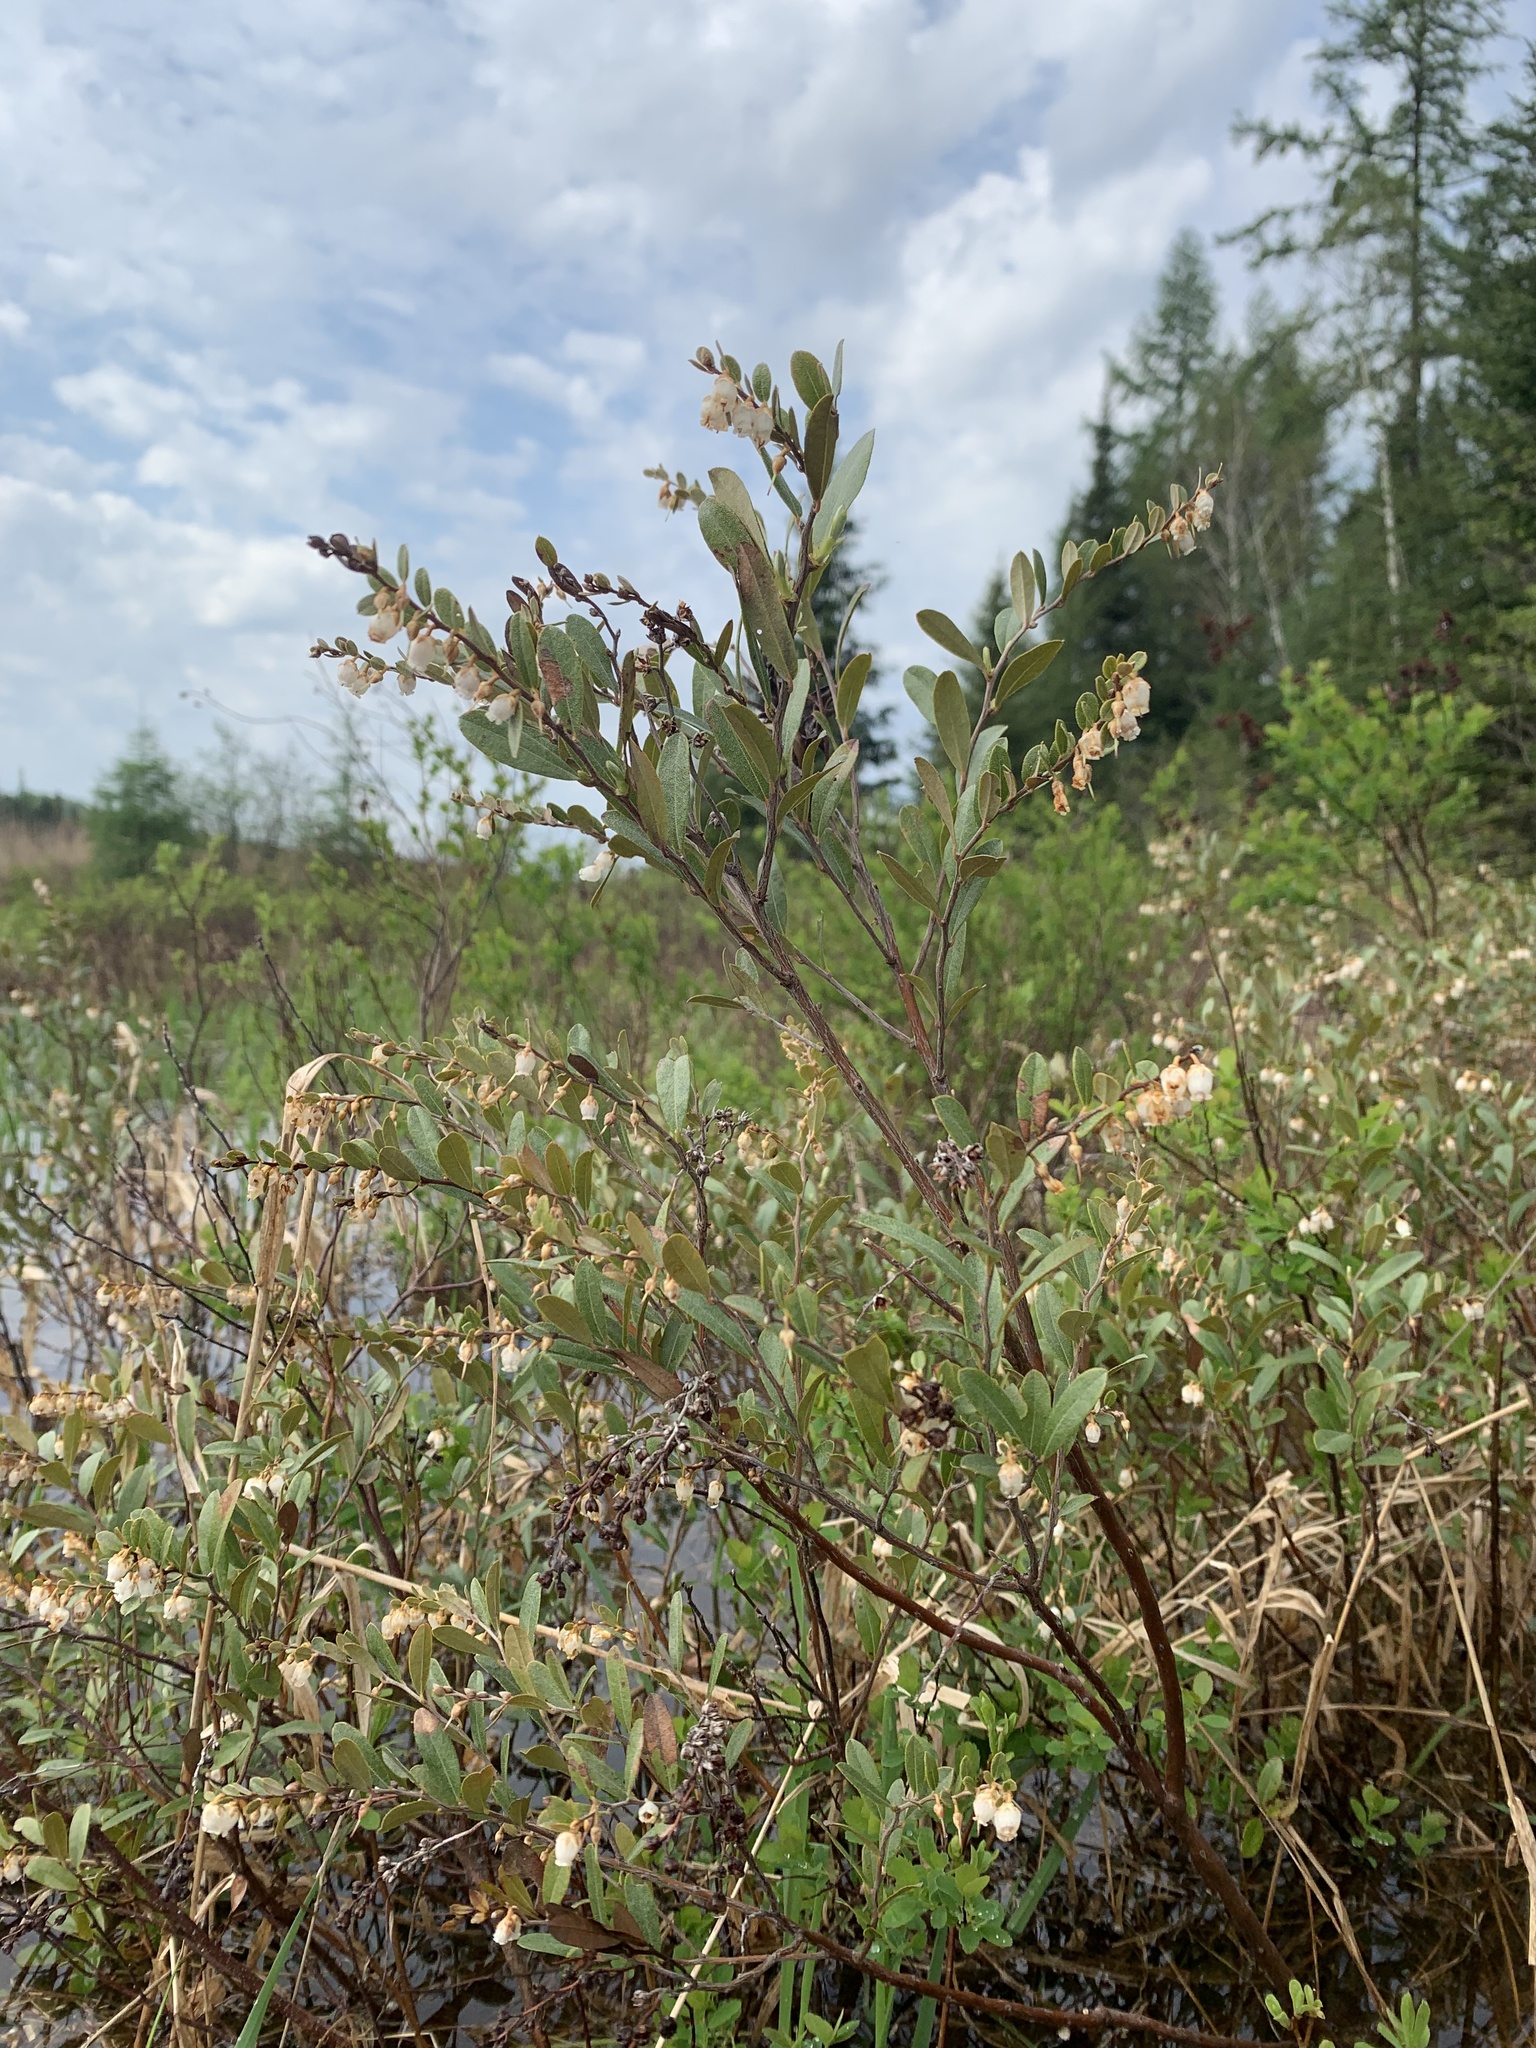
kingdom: Plantae
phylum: Tracheophyta
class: Magnoliopsida
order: Ericales
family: Ericaceae
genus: Chamaedaphne
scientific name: Chamaedaphne calyculata
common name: Leatherleaf
